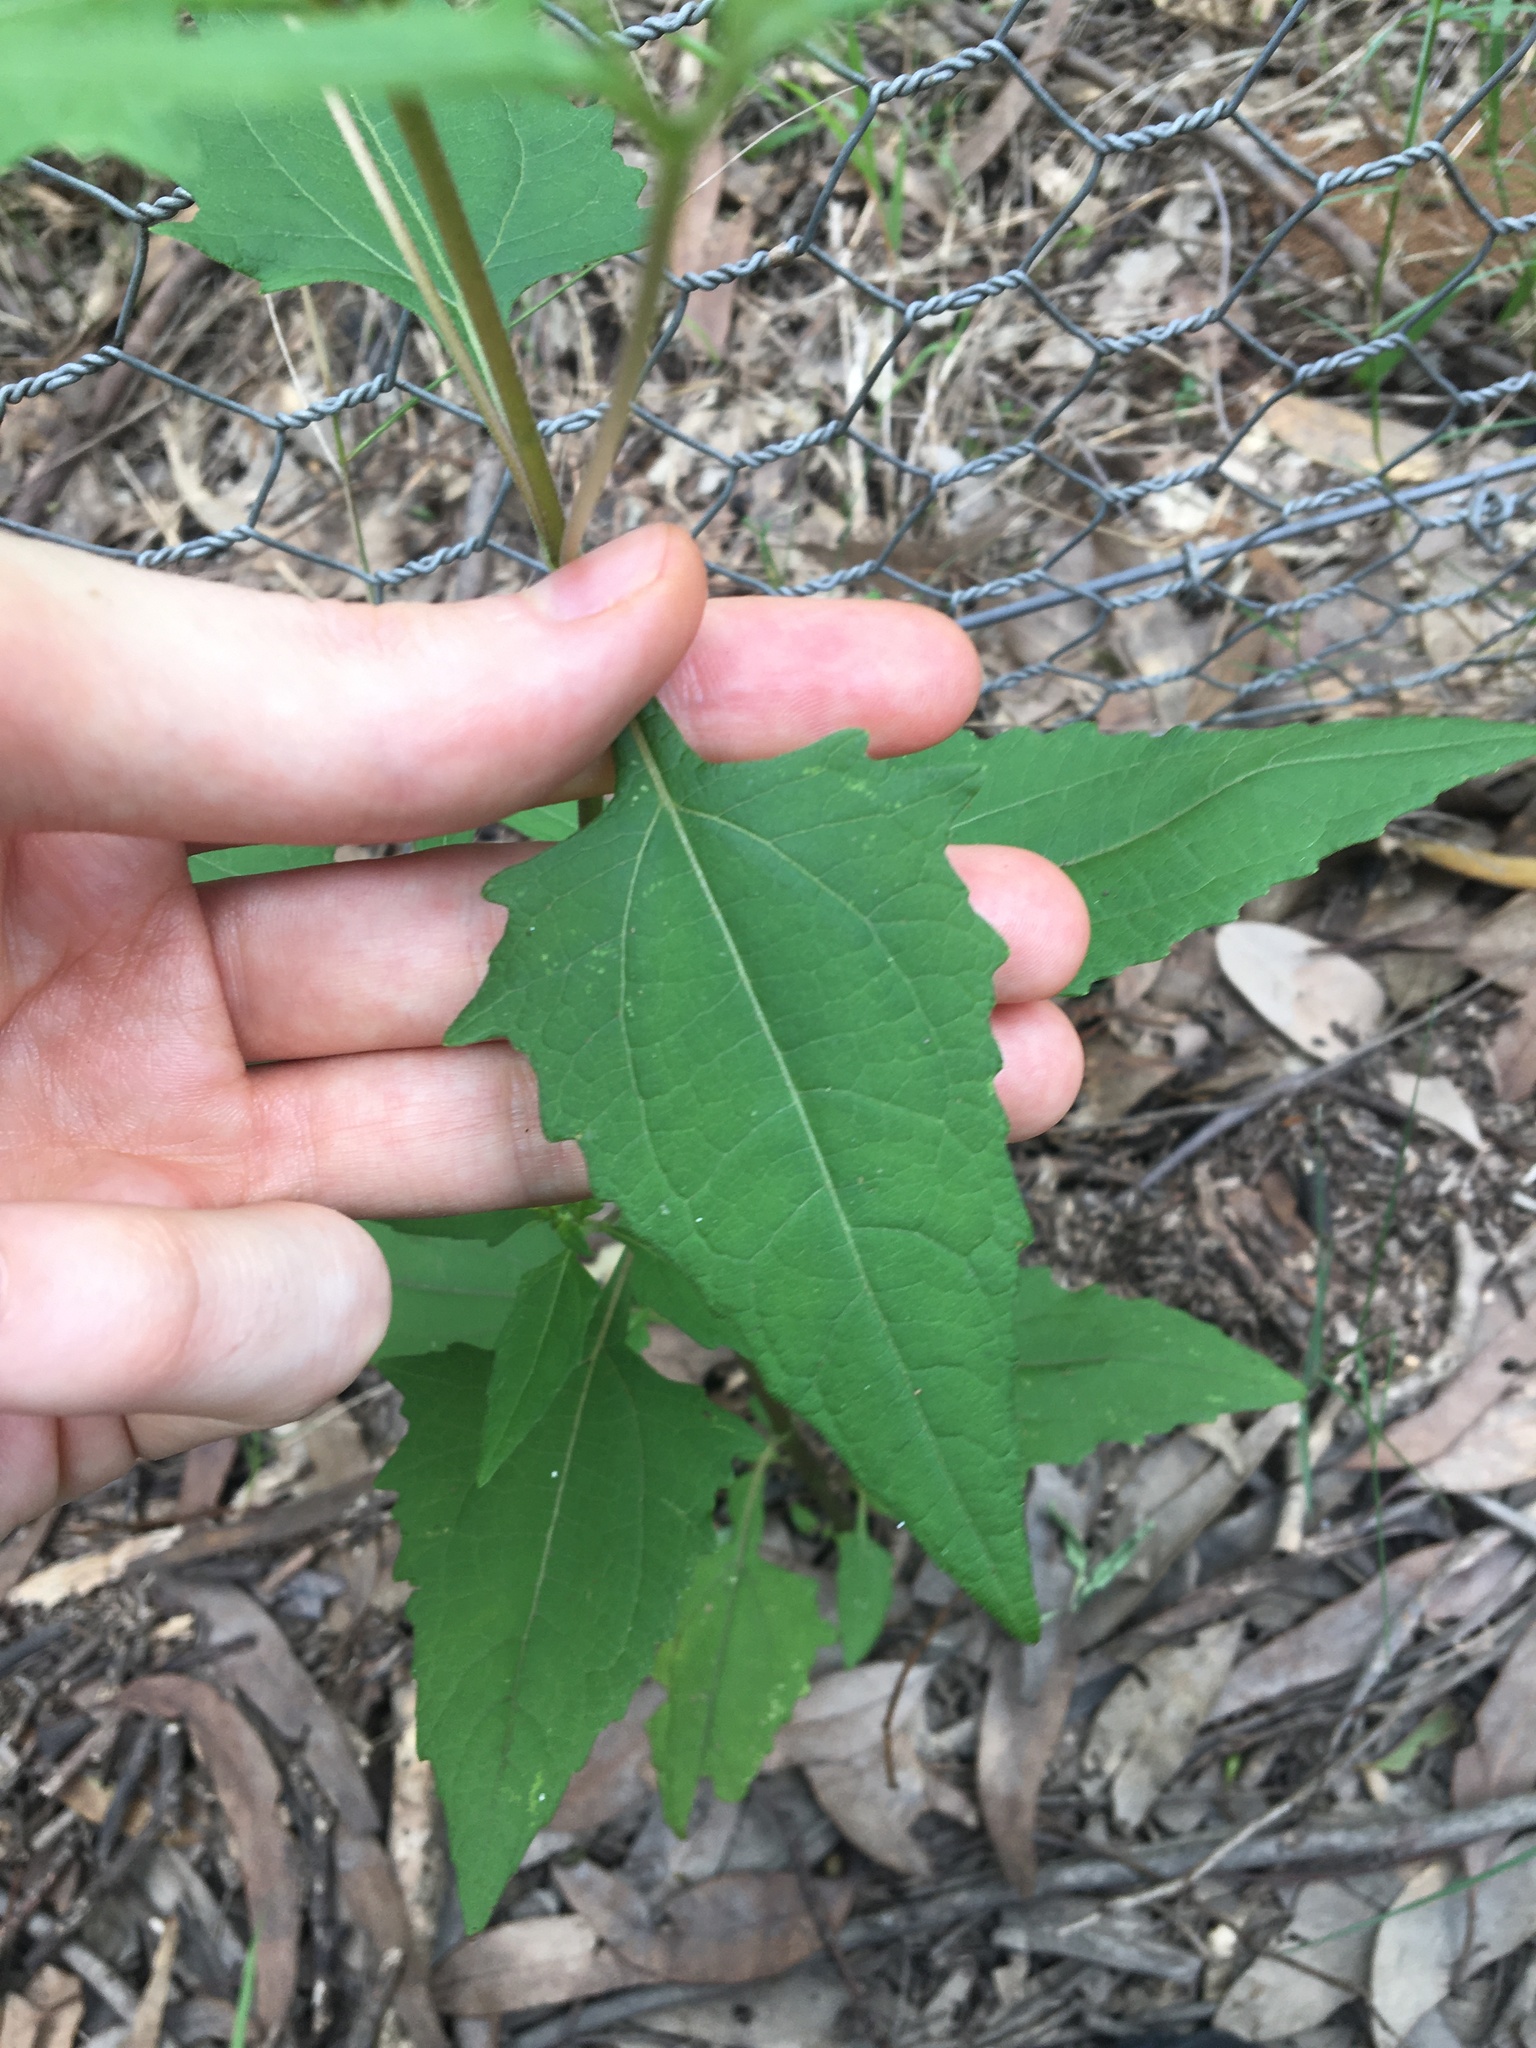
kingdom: Plantae
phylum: Tracheophyta
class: Magnoliopsida
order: Asterales
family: Asteraceae
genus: Sigesbeckia
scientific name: Sigesbeckia orientalis
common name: Eastern st paul's-wort
